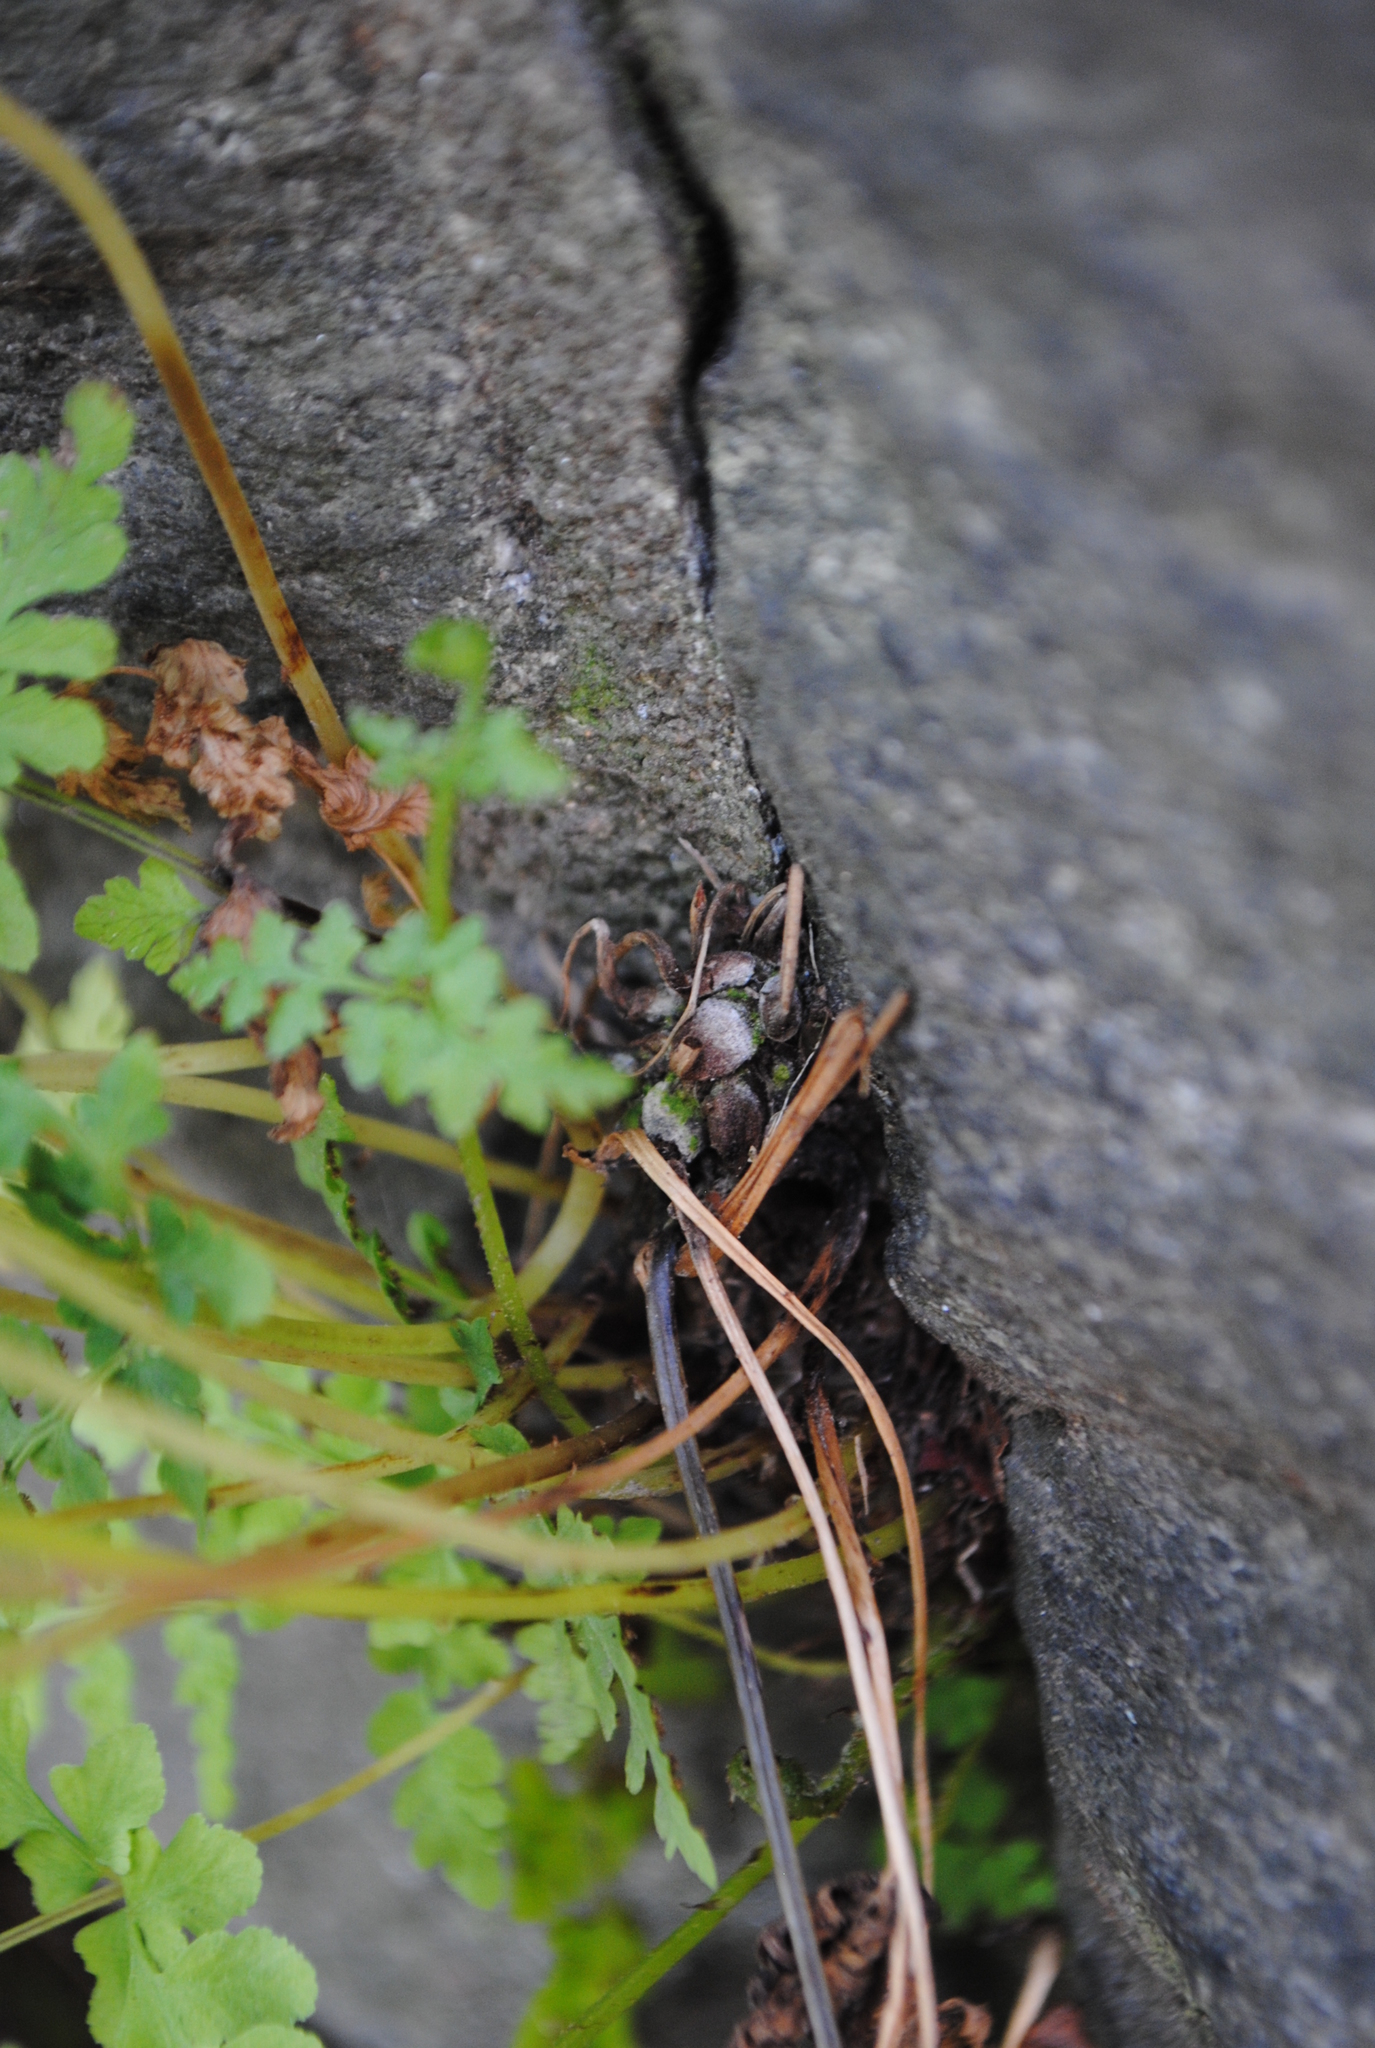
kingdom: Plantae
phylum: Tracheophyta
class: Polypodiopsida
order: Polypodiales
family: Cystopteridaceae
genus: Cystopteris
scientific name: Cystopteris tennesseensis
